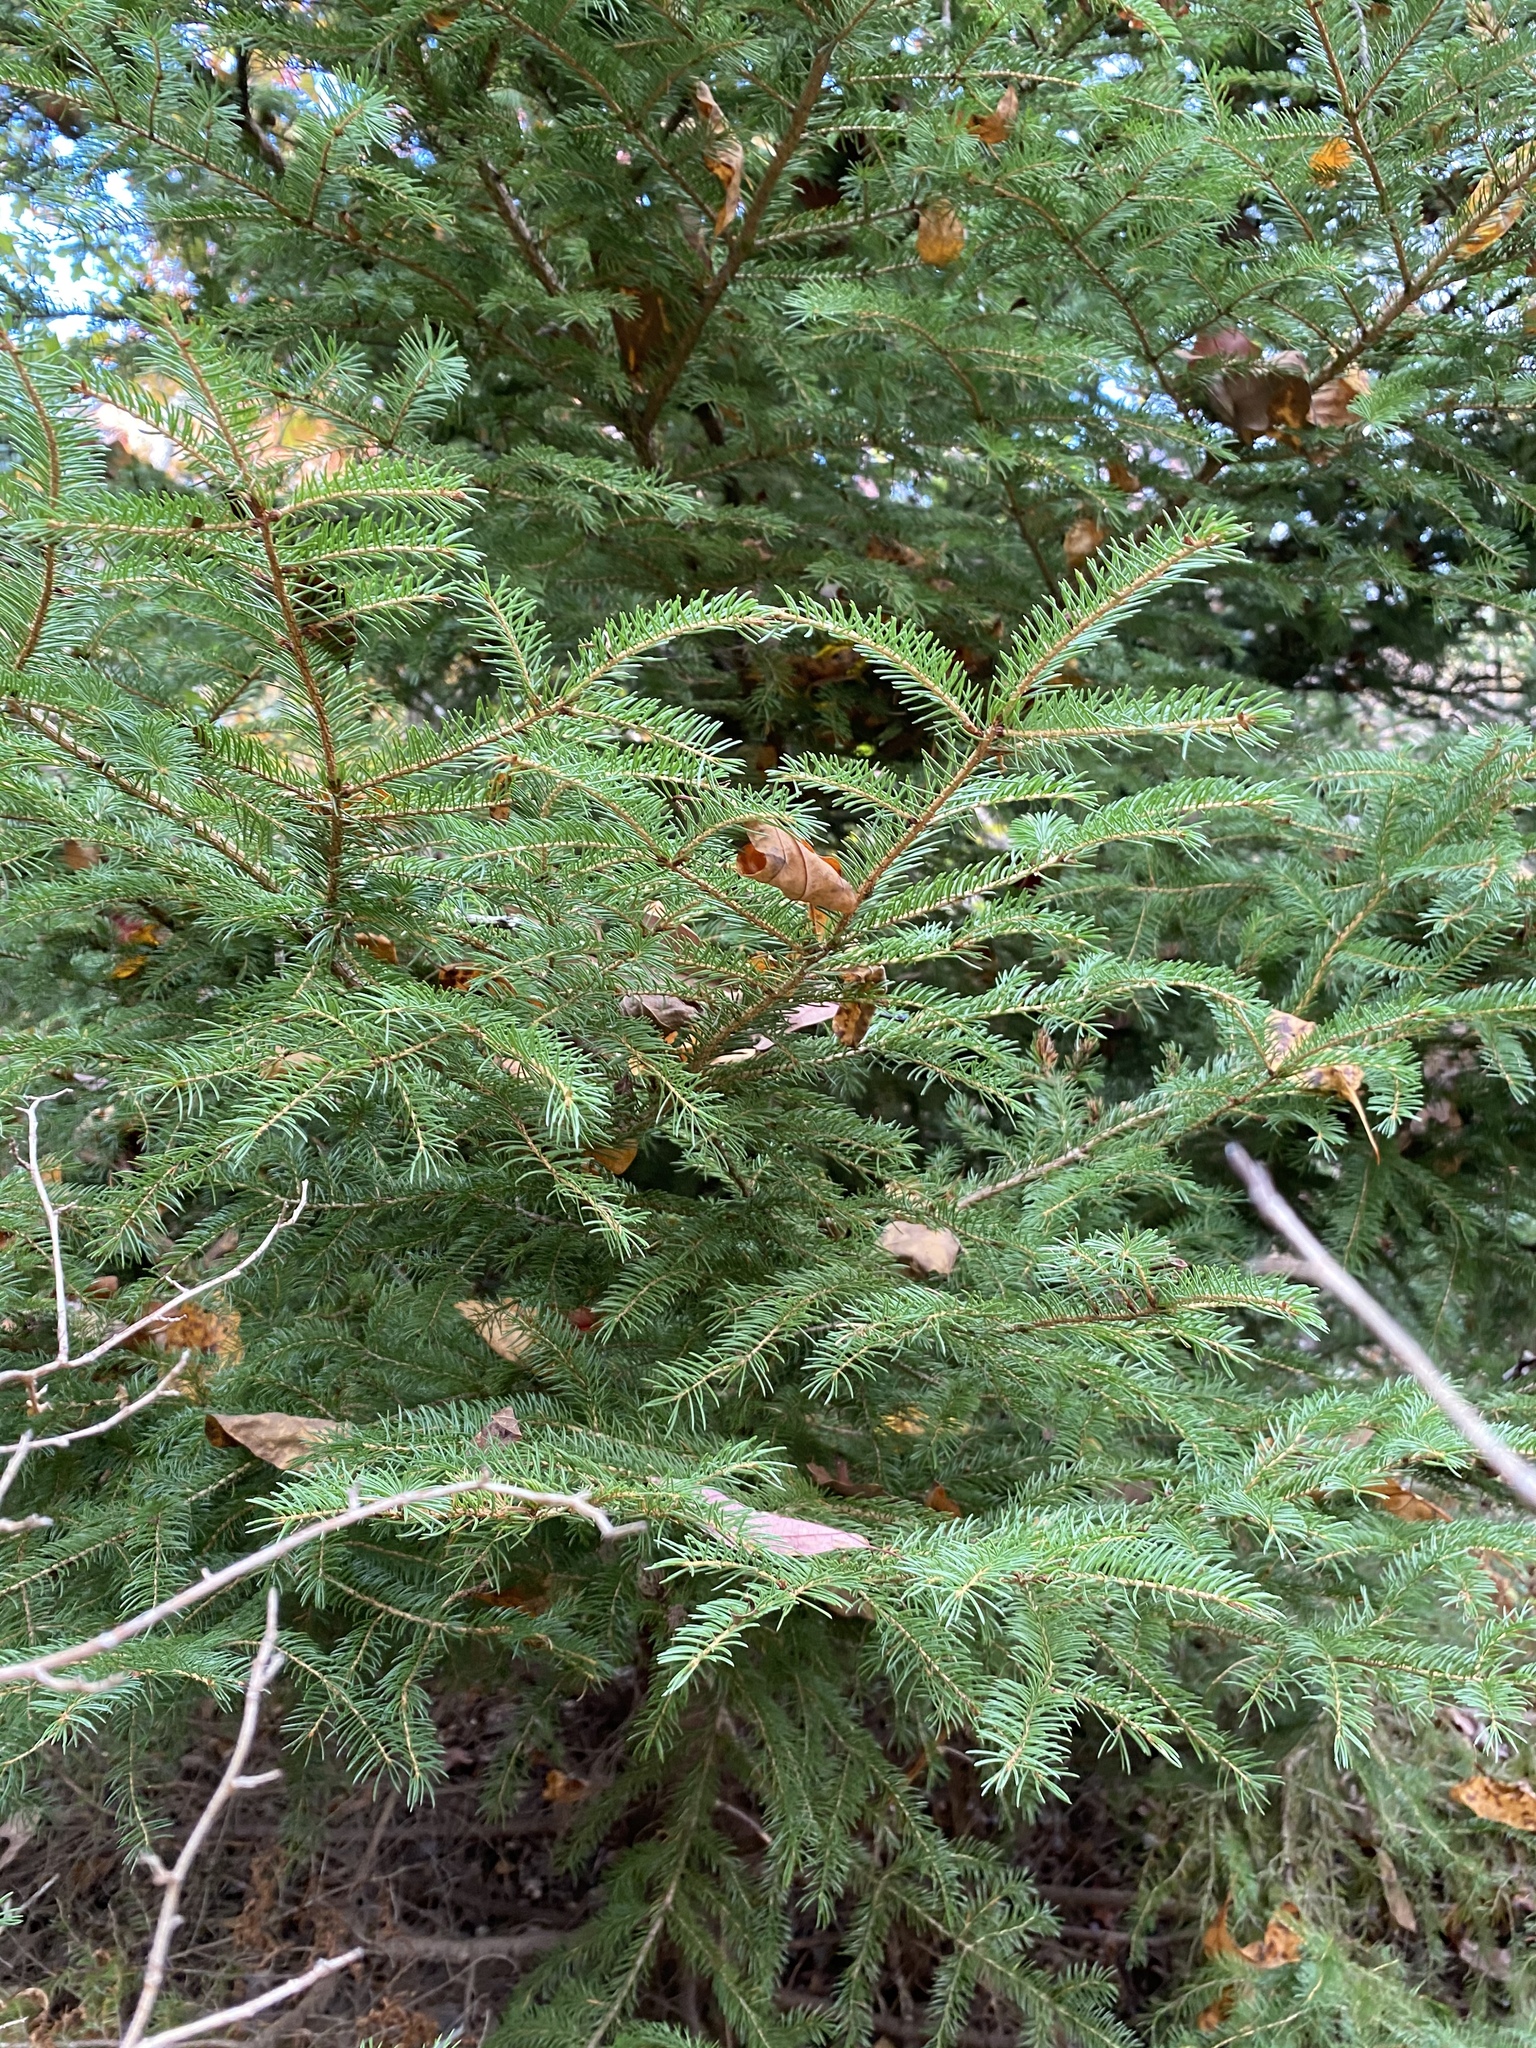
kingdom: Plantae
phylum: Tracheophyta
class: Pinopsida
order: Pinales
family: Pinaceae
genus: Picea
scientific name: Picea rubens
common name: Red spruce
